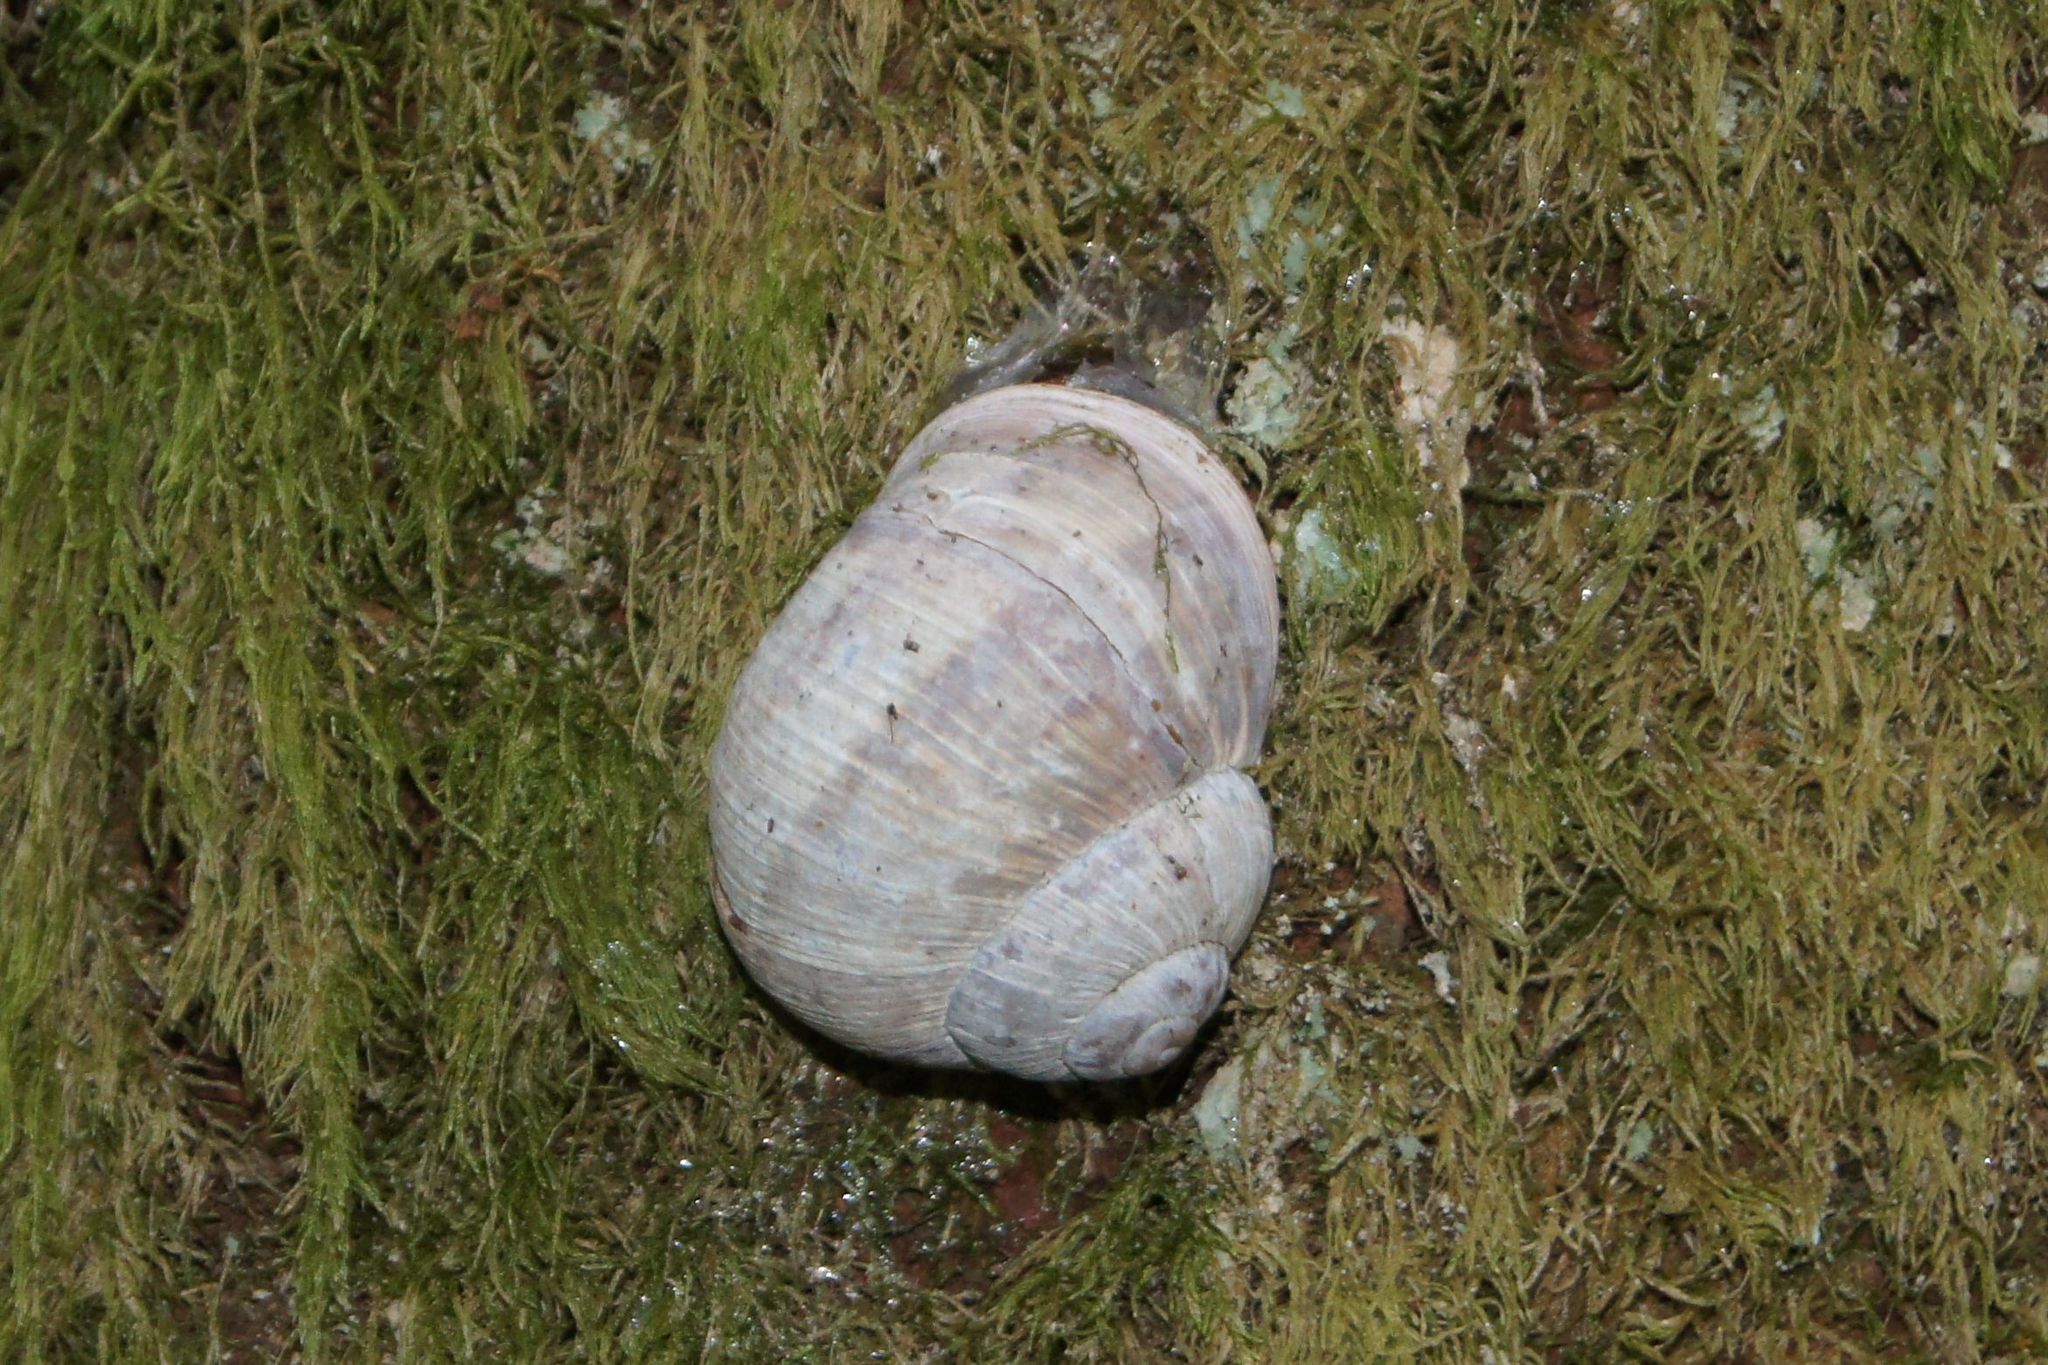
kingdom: Animalia
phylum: Mollusca
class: Gastropoda
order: Stylommatophora
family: Helicidae
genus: Helix
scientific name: Helix pomatia
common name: Roman snail
